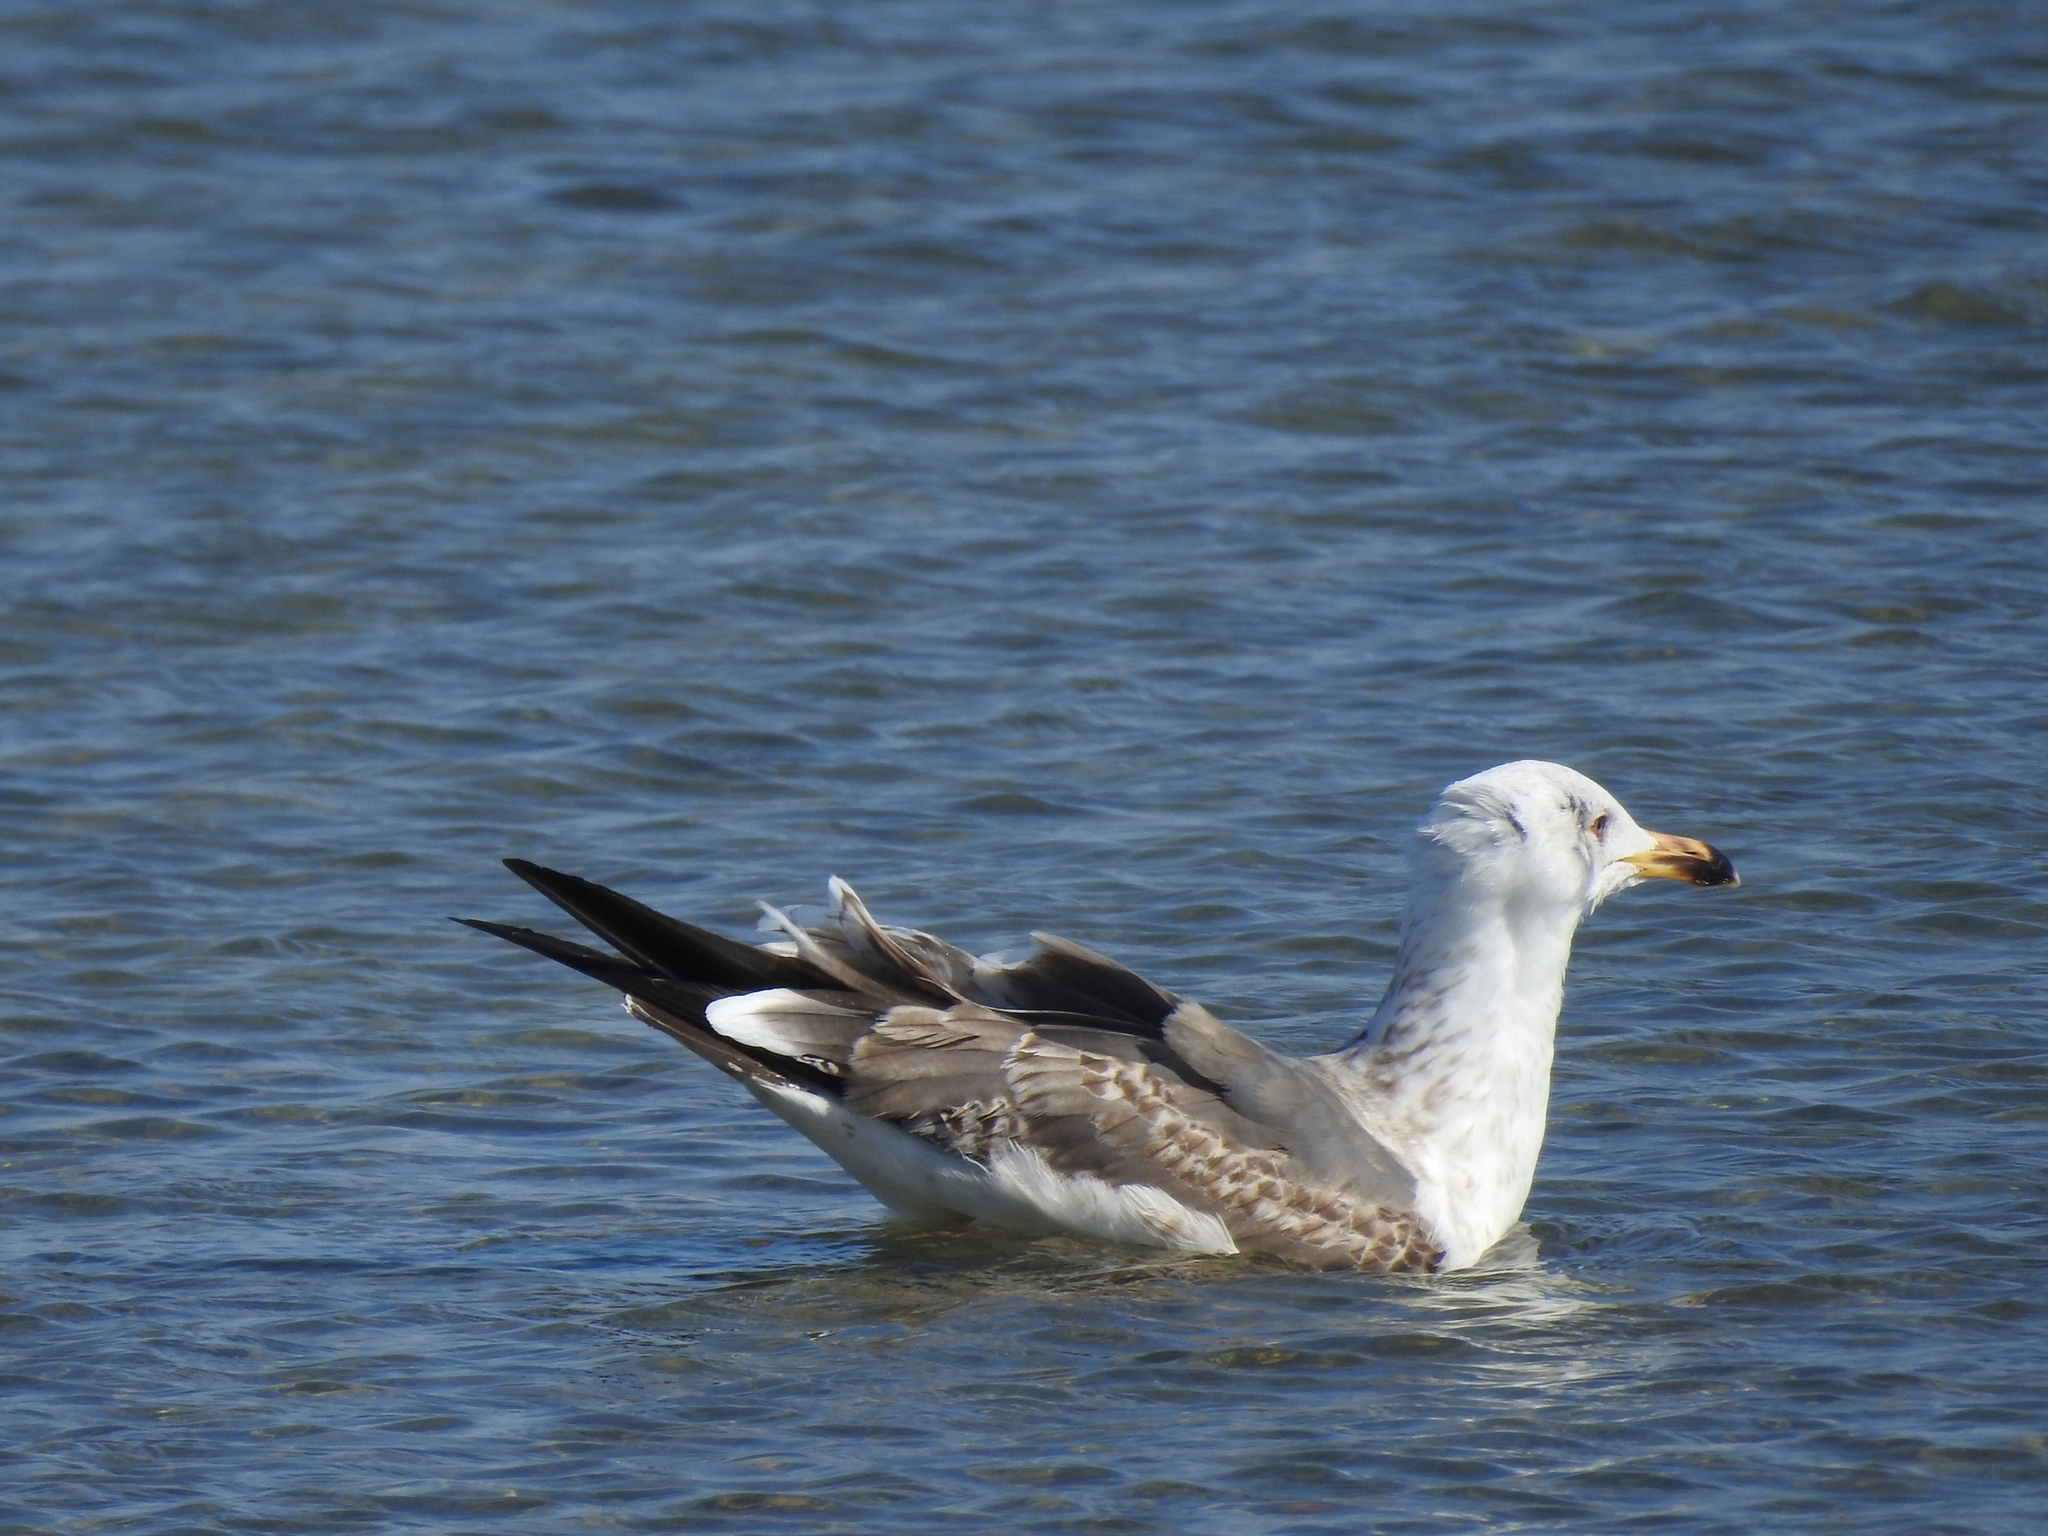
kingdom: Animalia
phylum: Chordata
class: Aves
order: Charadriiformes
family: Laridae
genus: Larus
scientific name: Larus fuscus
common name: Lesser black-backed gull
